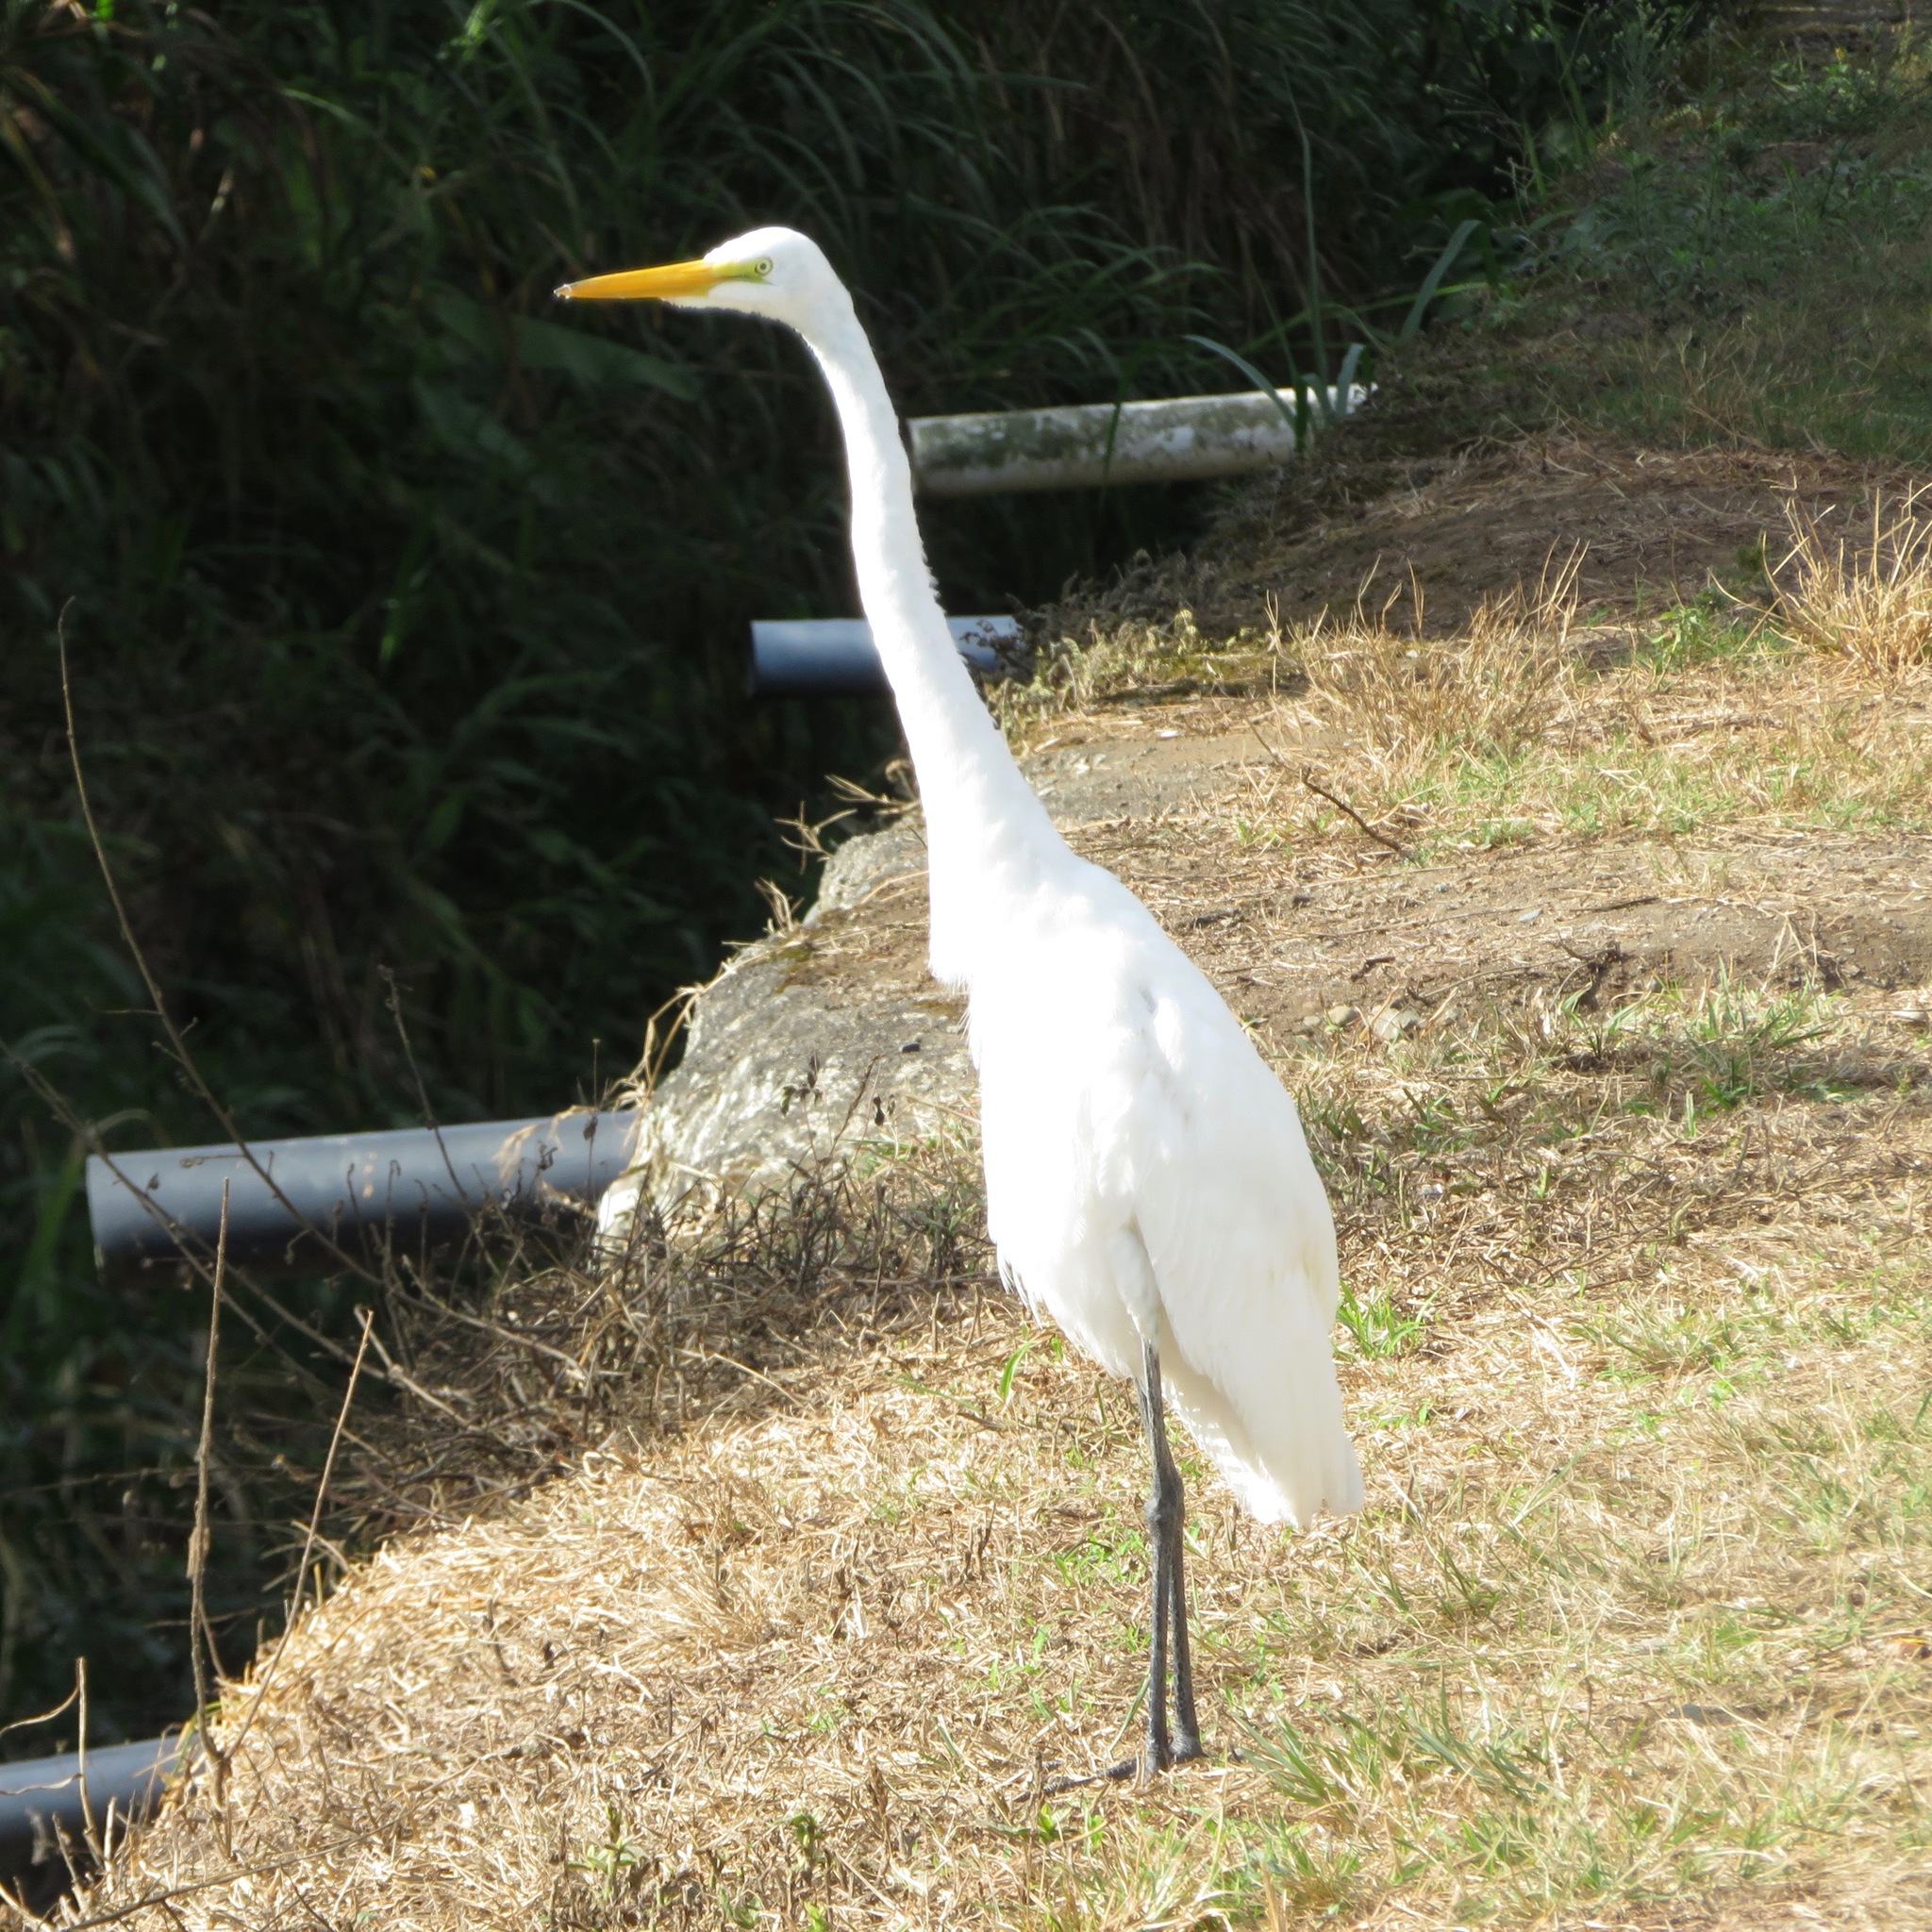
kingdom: Animalia
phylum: Chordata
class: Aves
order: Pelecaniformes
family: Ardeidae
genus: Ardea
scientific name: Ardea alba
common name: Great egret
